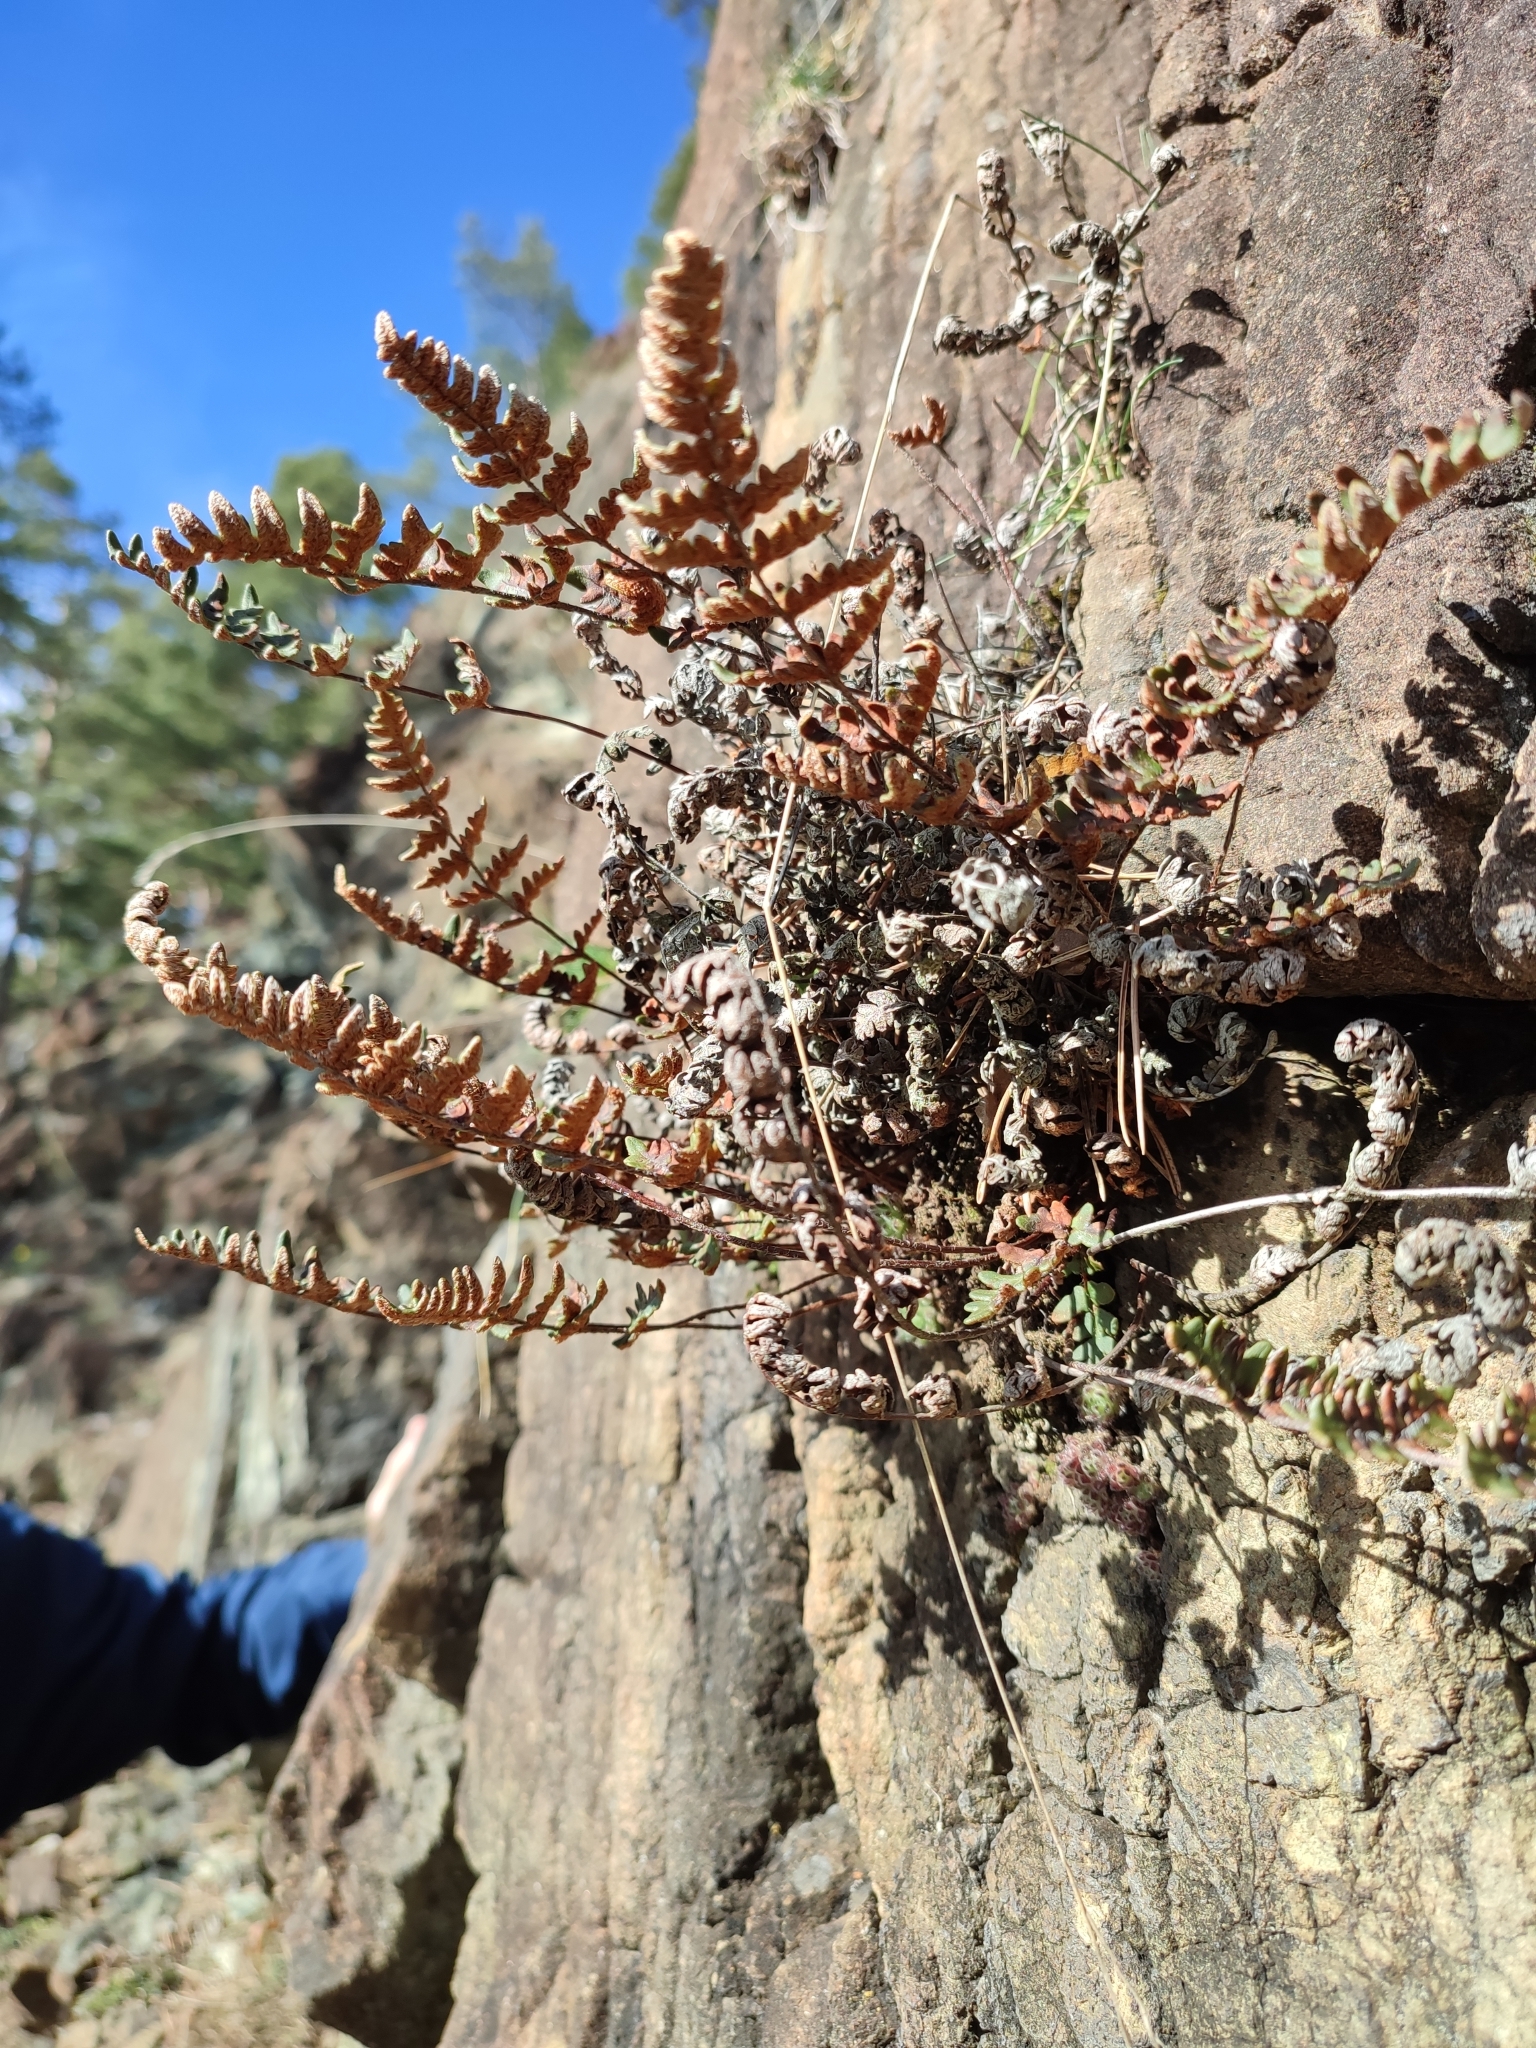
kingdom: Plantae
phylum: Tracheophyta
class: Polypodiopsida
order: Polypodiales
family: Pteridaceae
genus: Paragymnopteris
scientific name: Paragymnopteris marantae
